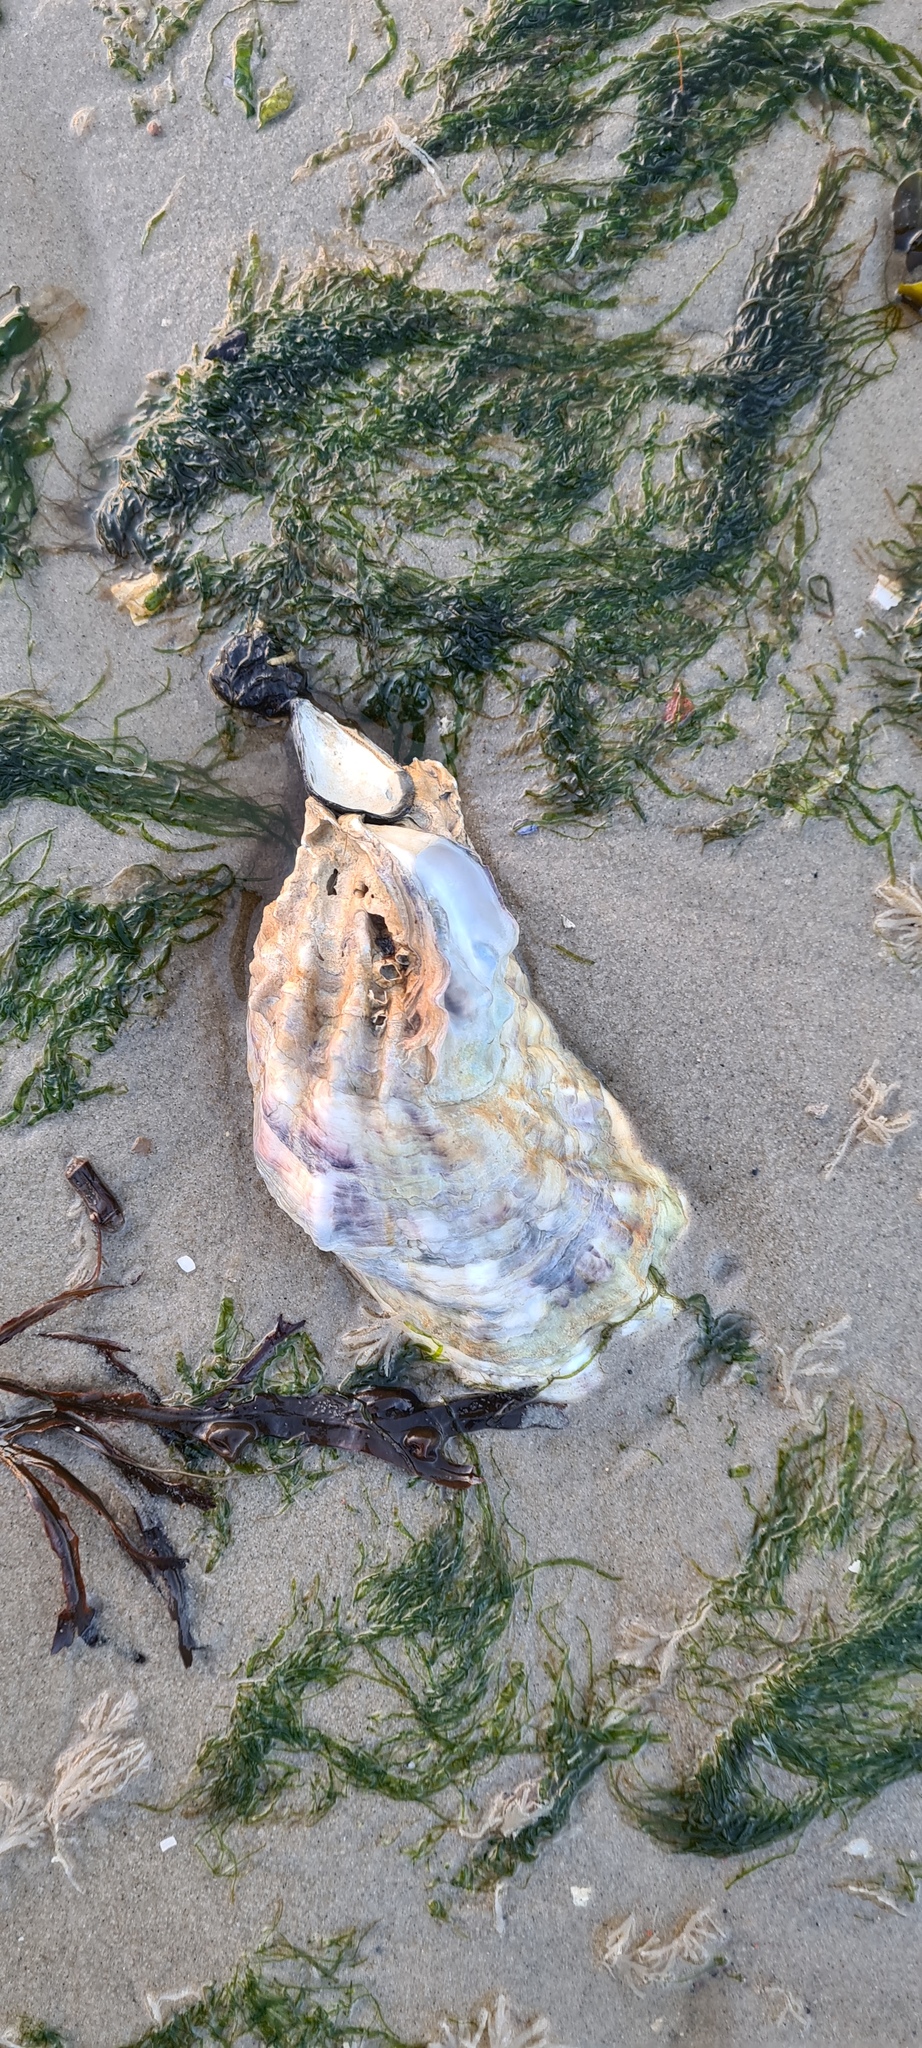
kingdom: Animalia
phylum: Mollusca
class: Bivalvia
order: Ostreida
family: Ostreidae
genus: Magallana
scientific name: Magallana gigas
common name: Pacific oyster
